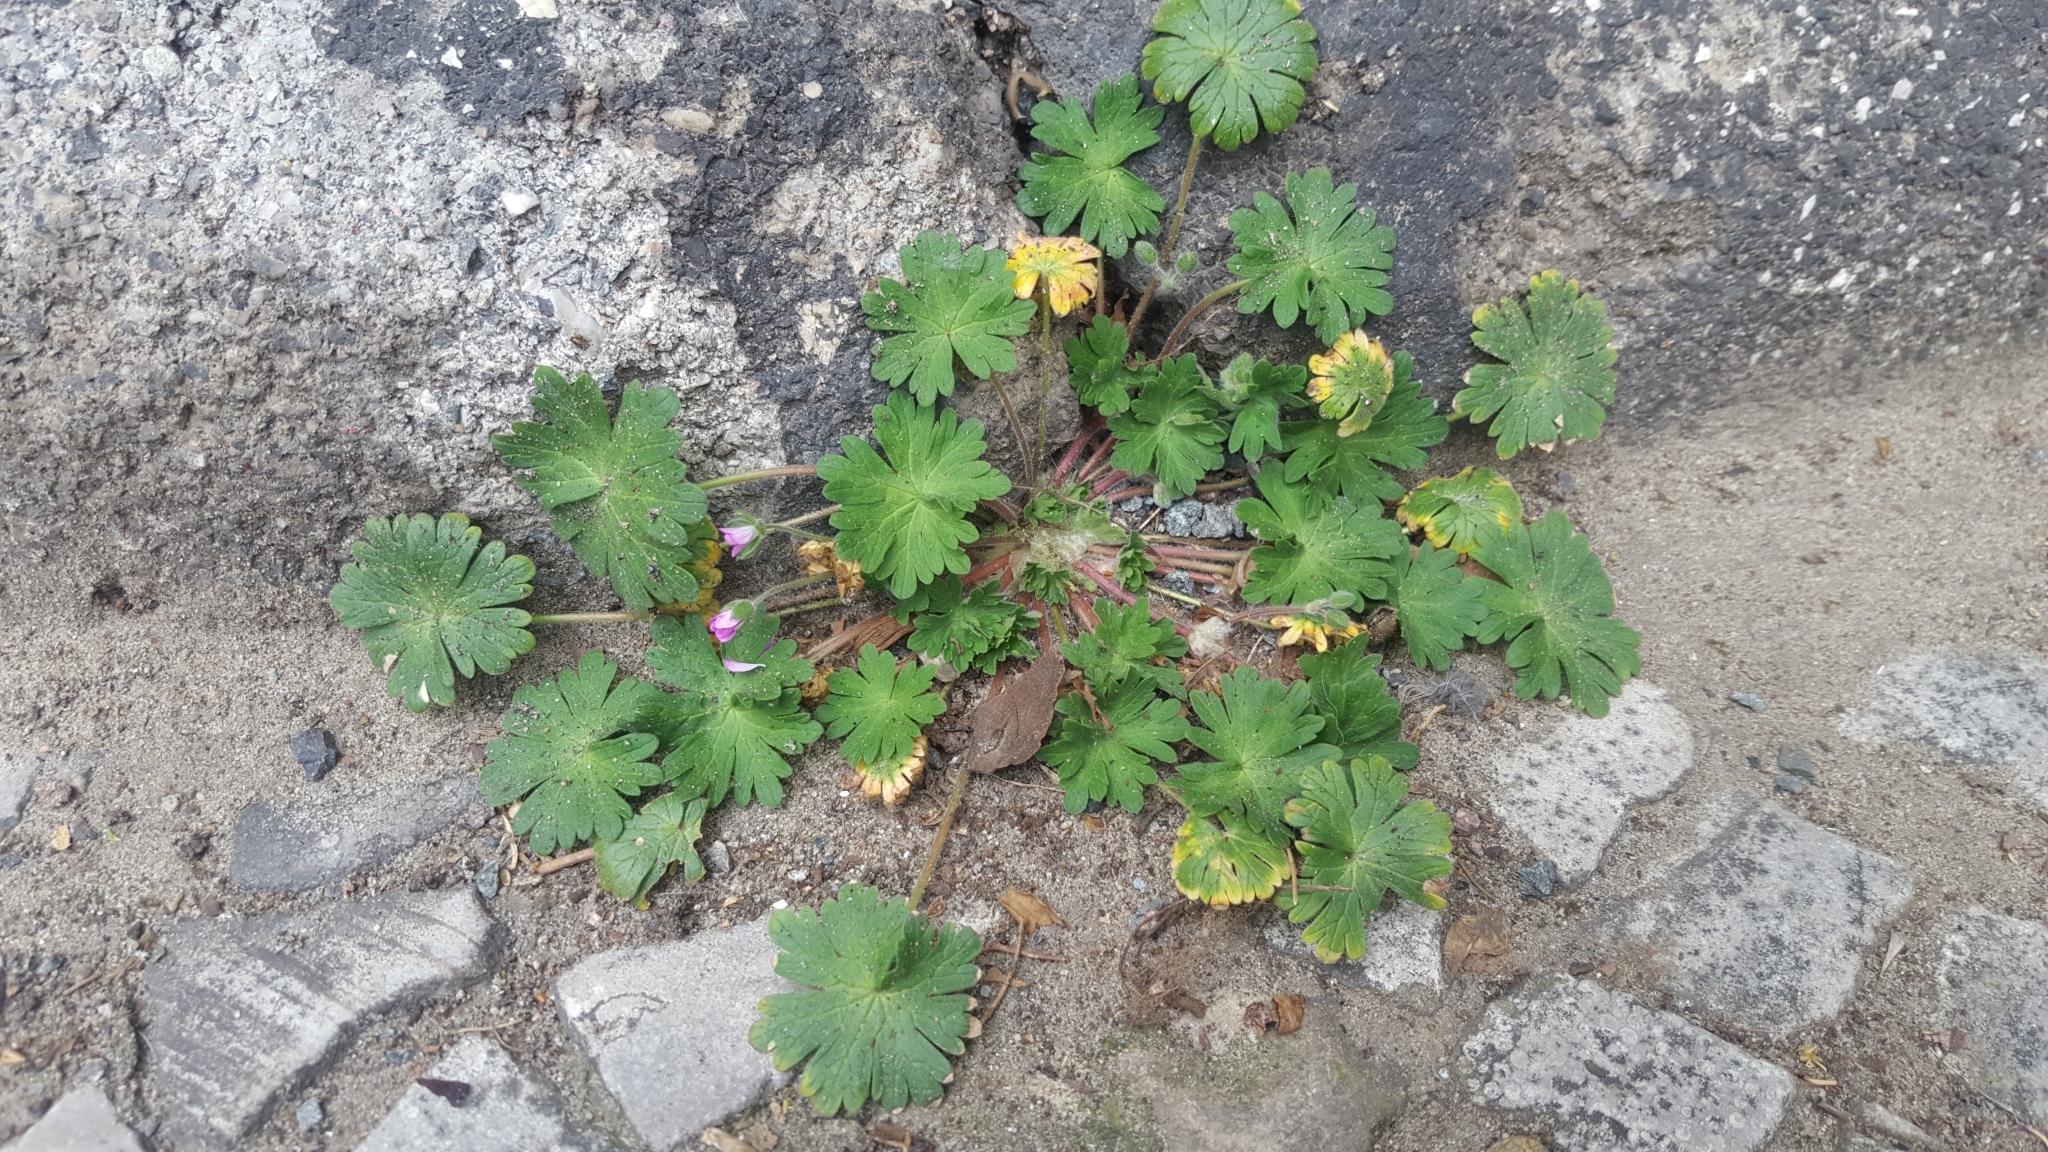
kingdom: Plantae
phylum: Tracheophyta
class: Magnoliopsida
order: Geraniales
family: Geraniaceae
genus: Geranium
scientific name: Geranium molle
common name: Dove's-foot crane's-bill
